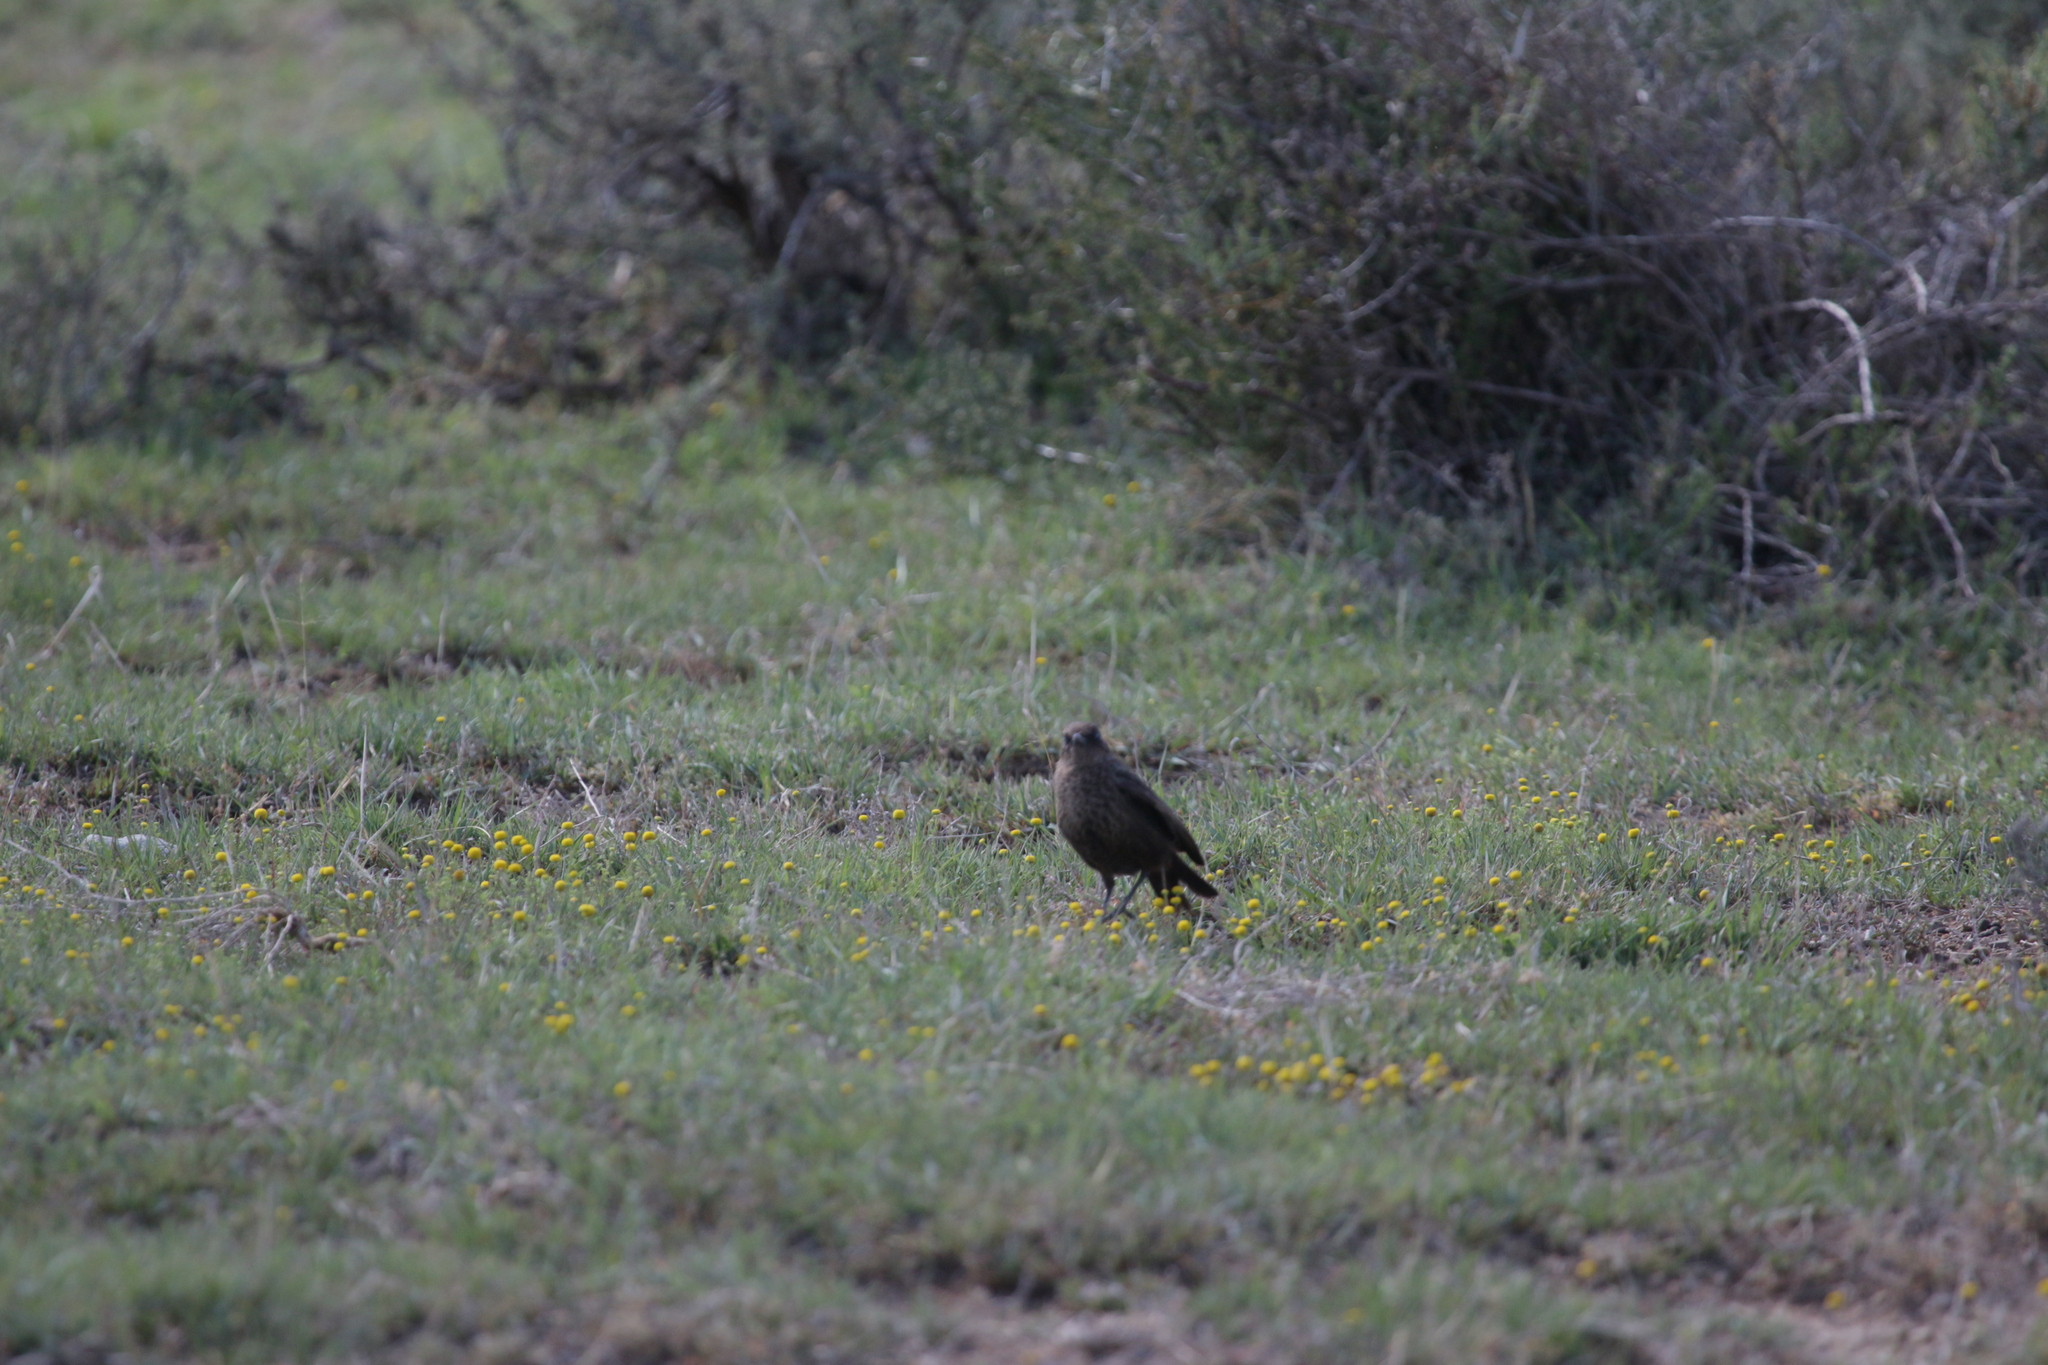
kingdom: Animalia
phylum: Chordata
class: Aves
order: Passeriformes
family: Muscicapidae
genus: Myrmecocichla
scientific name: Myrmecocichla formicivora
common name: Ant-eating chat
